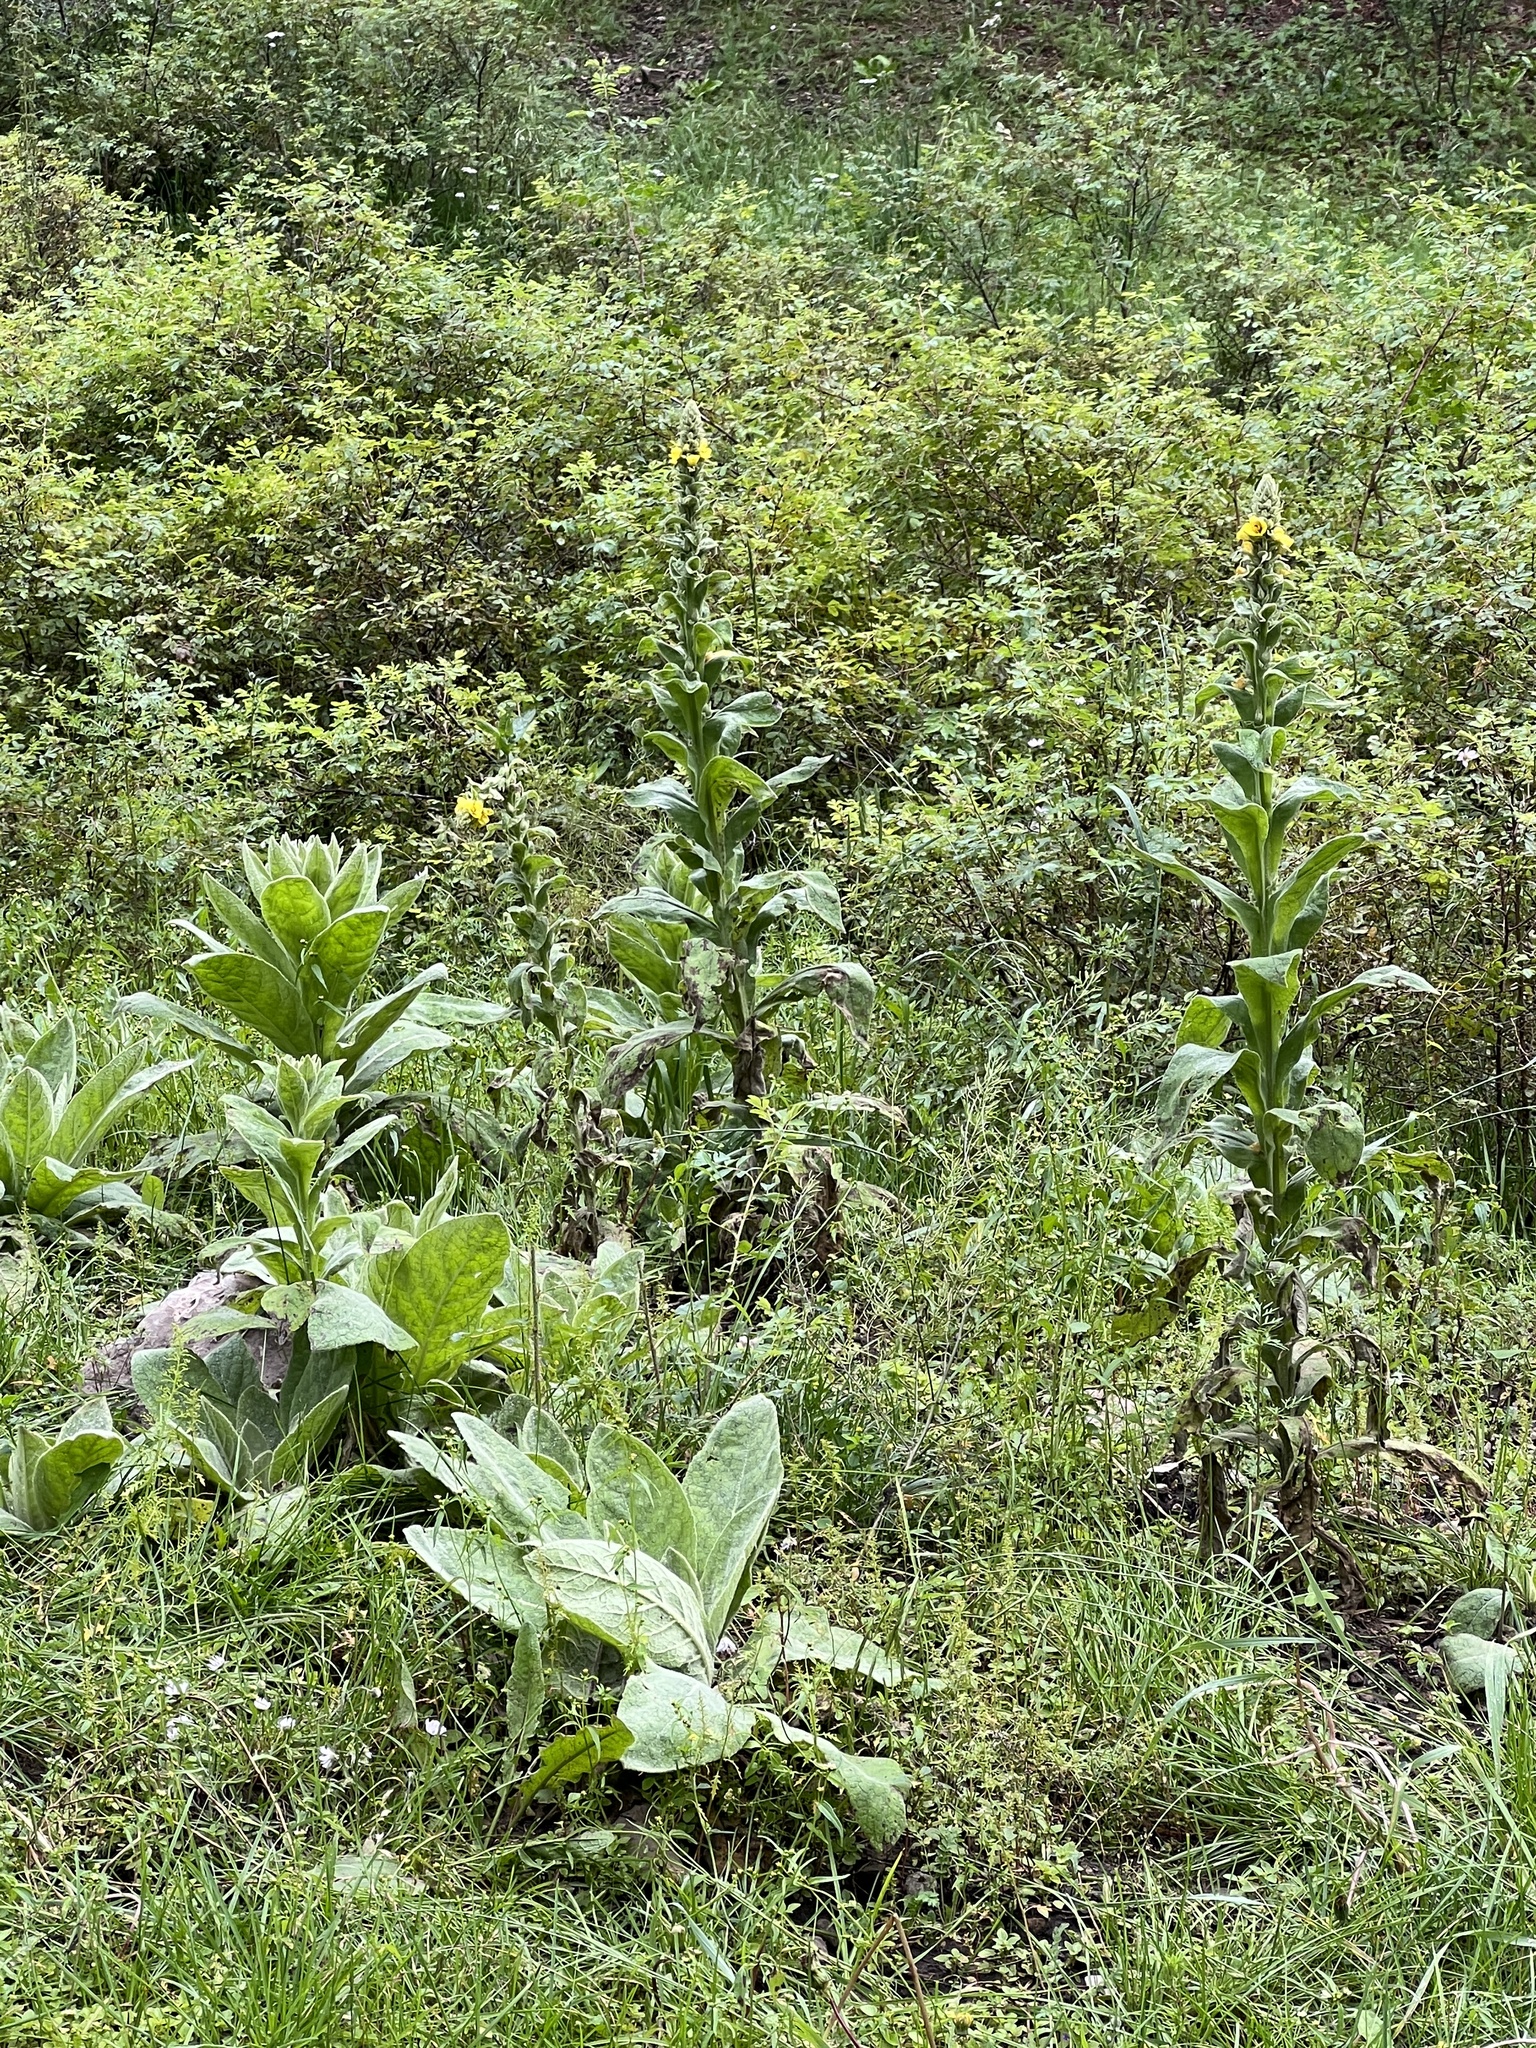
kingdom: Plantae
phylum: Tracheophyta
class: Magnoliopsida
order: Lamiales
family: Scrophulariaceae
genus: Verbascum
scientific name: Verbascum thapsus
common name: Common mullein
